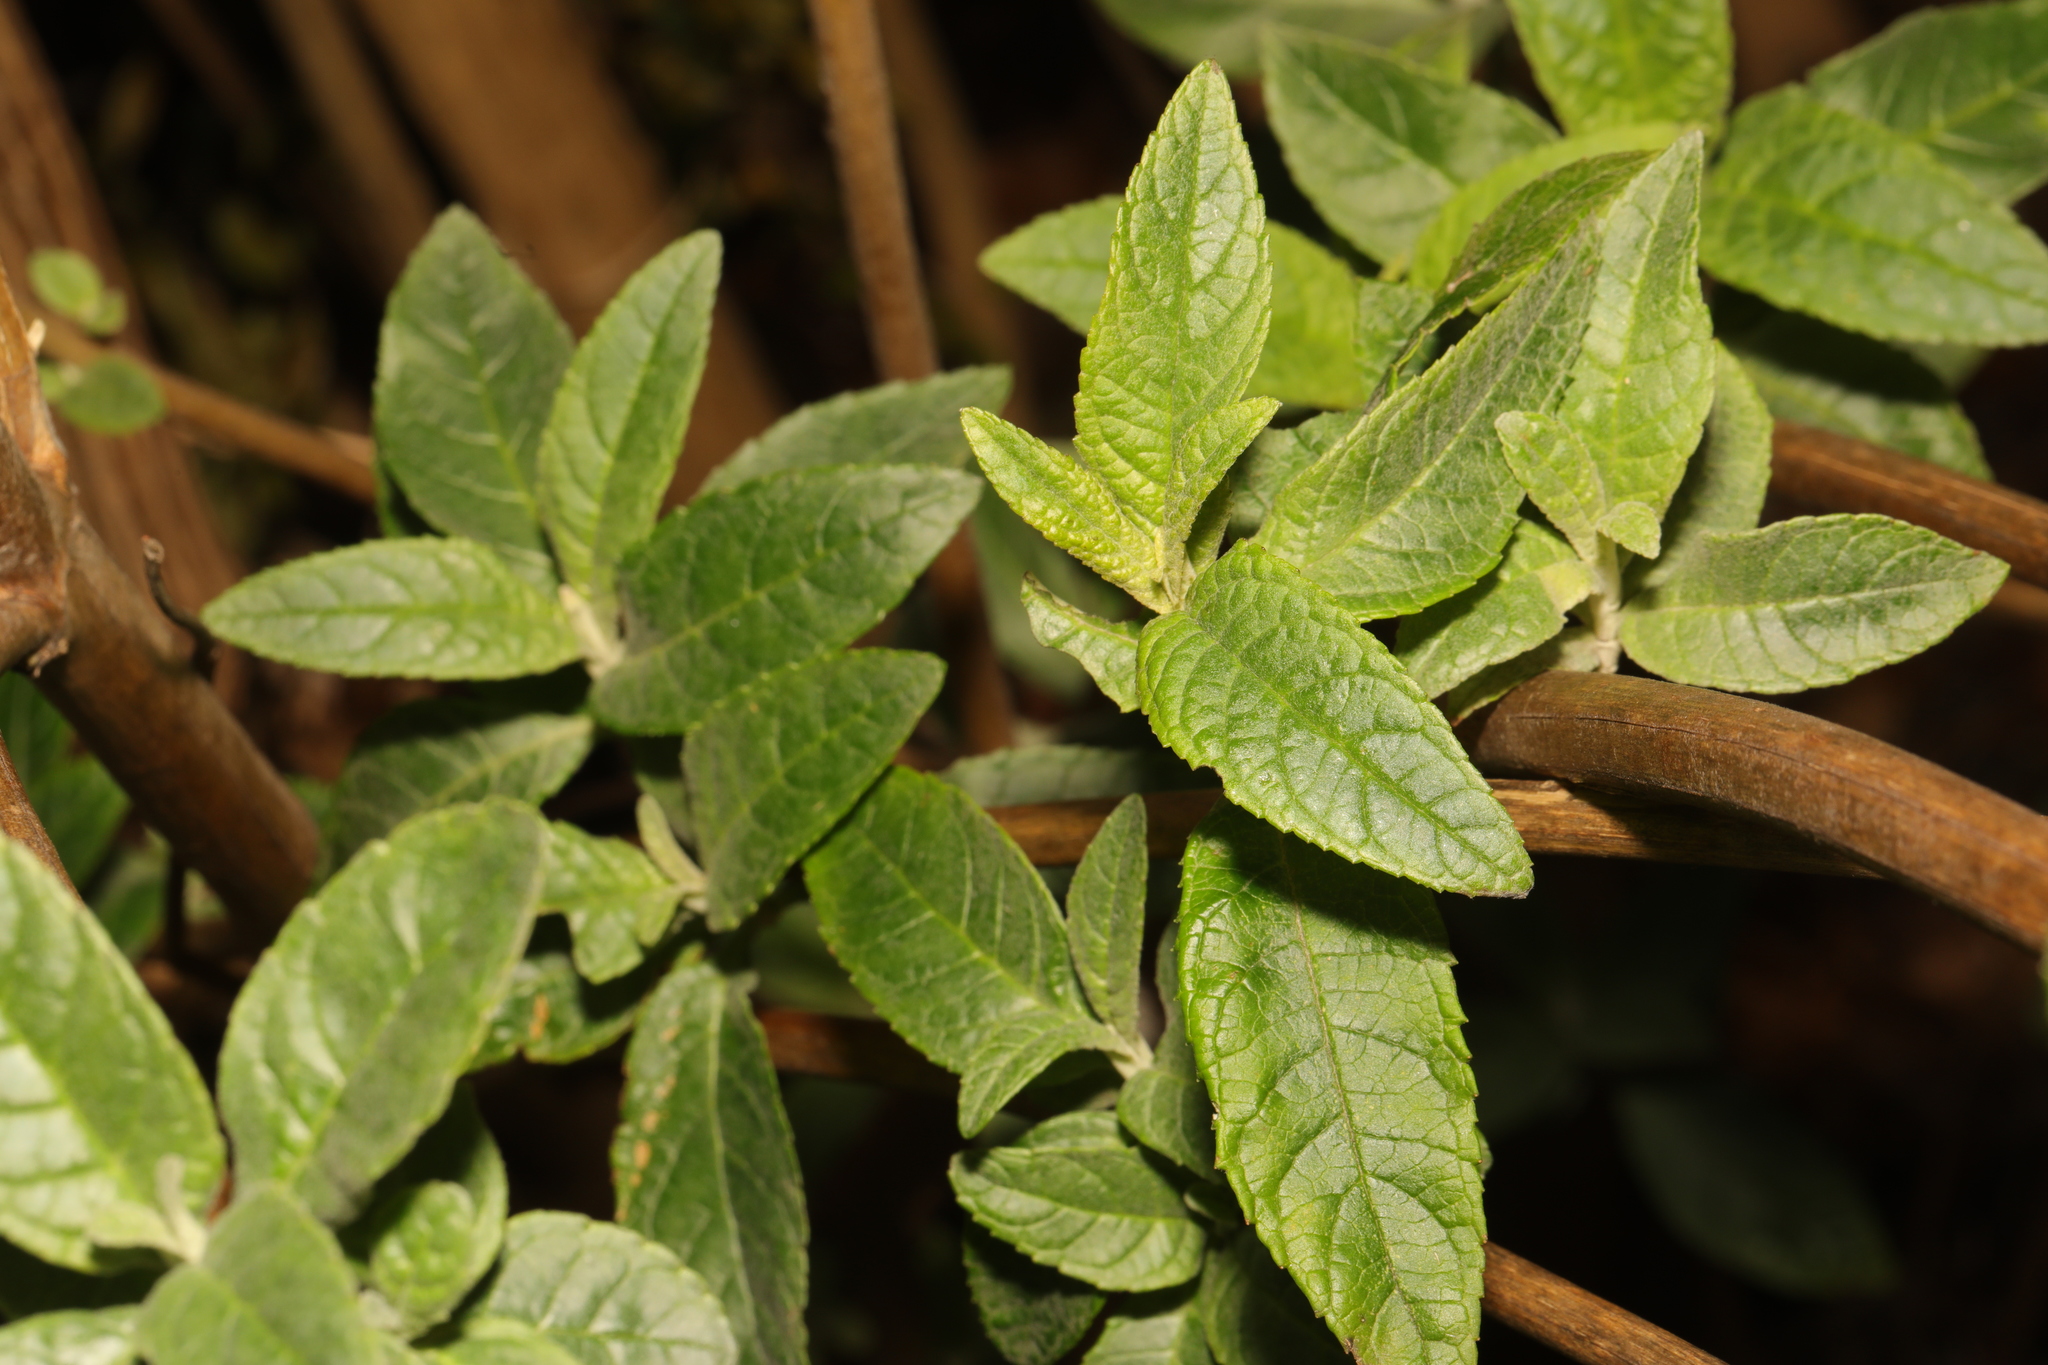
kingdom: Plantae
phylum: Tracheophyta
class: Magnoliopsida
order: Lamiales
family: Scrophulariaceae
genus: Buddleja
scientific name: Buddleja davidii
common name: Butterfly-bush
